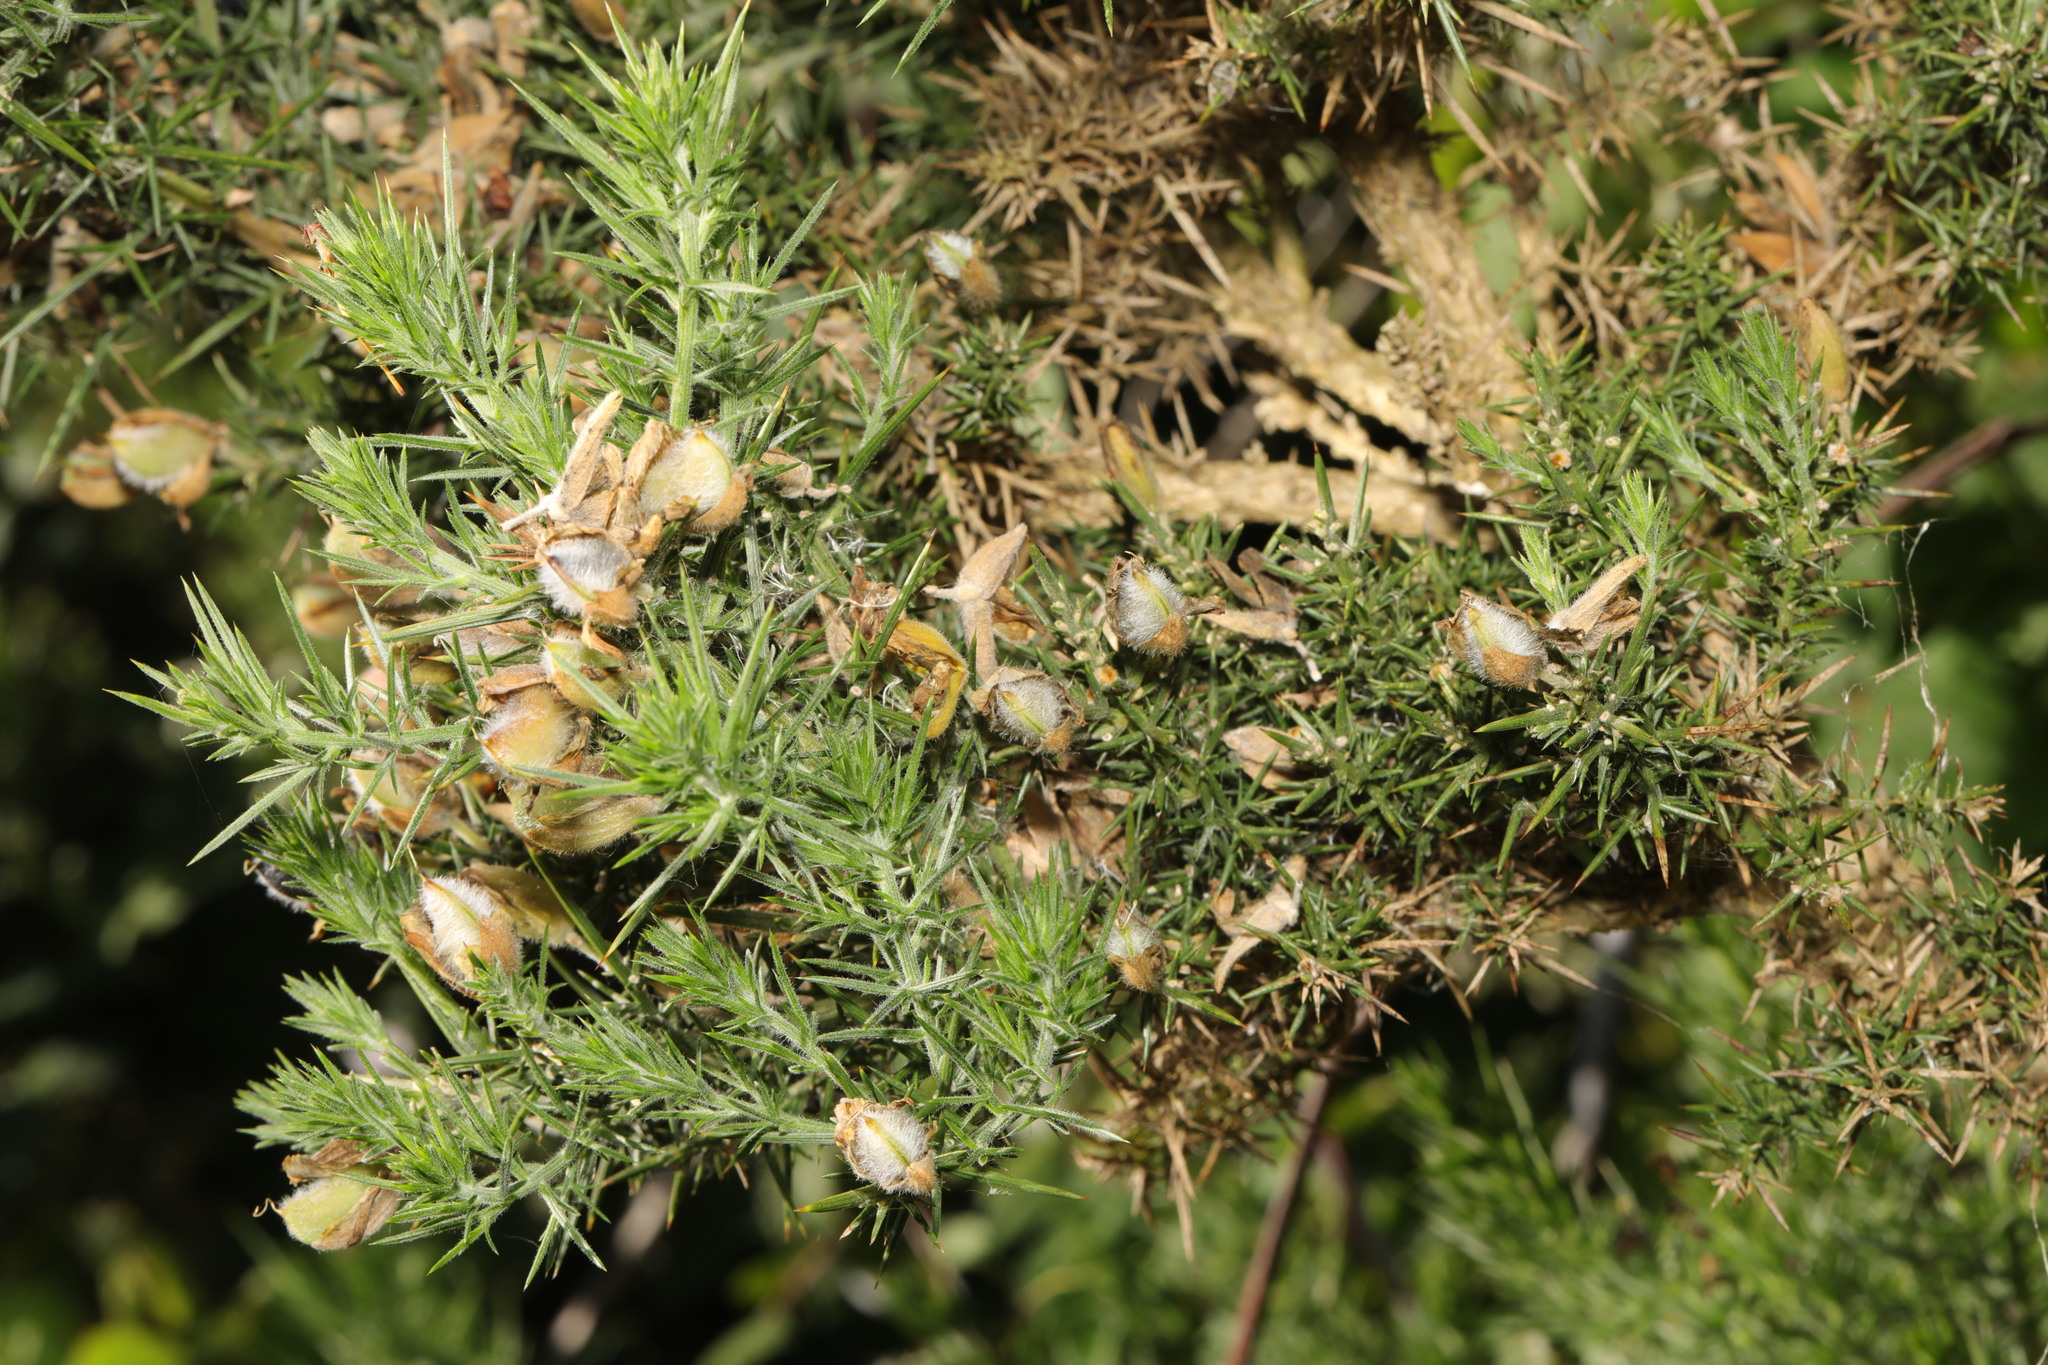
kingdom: Plantae
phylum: Tracheophyta
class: Magnoliopsida
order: Fabales
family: Fabaceae
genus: Ulex
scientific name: Ulex europaeus
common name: Common gorse
